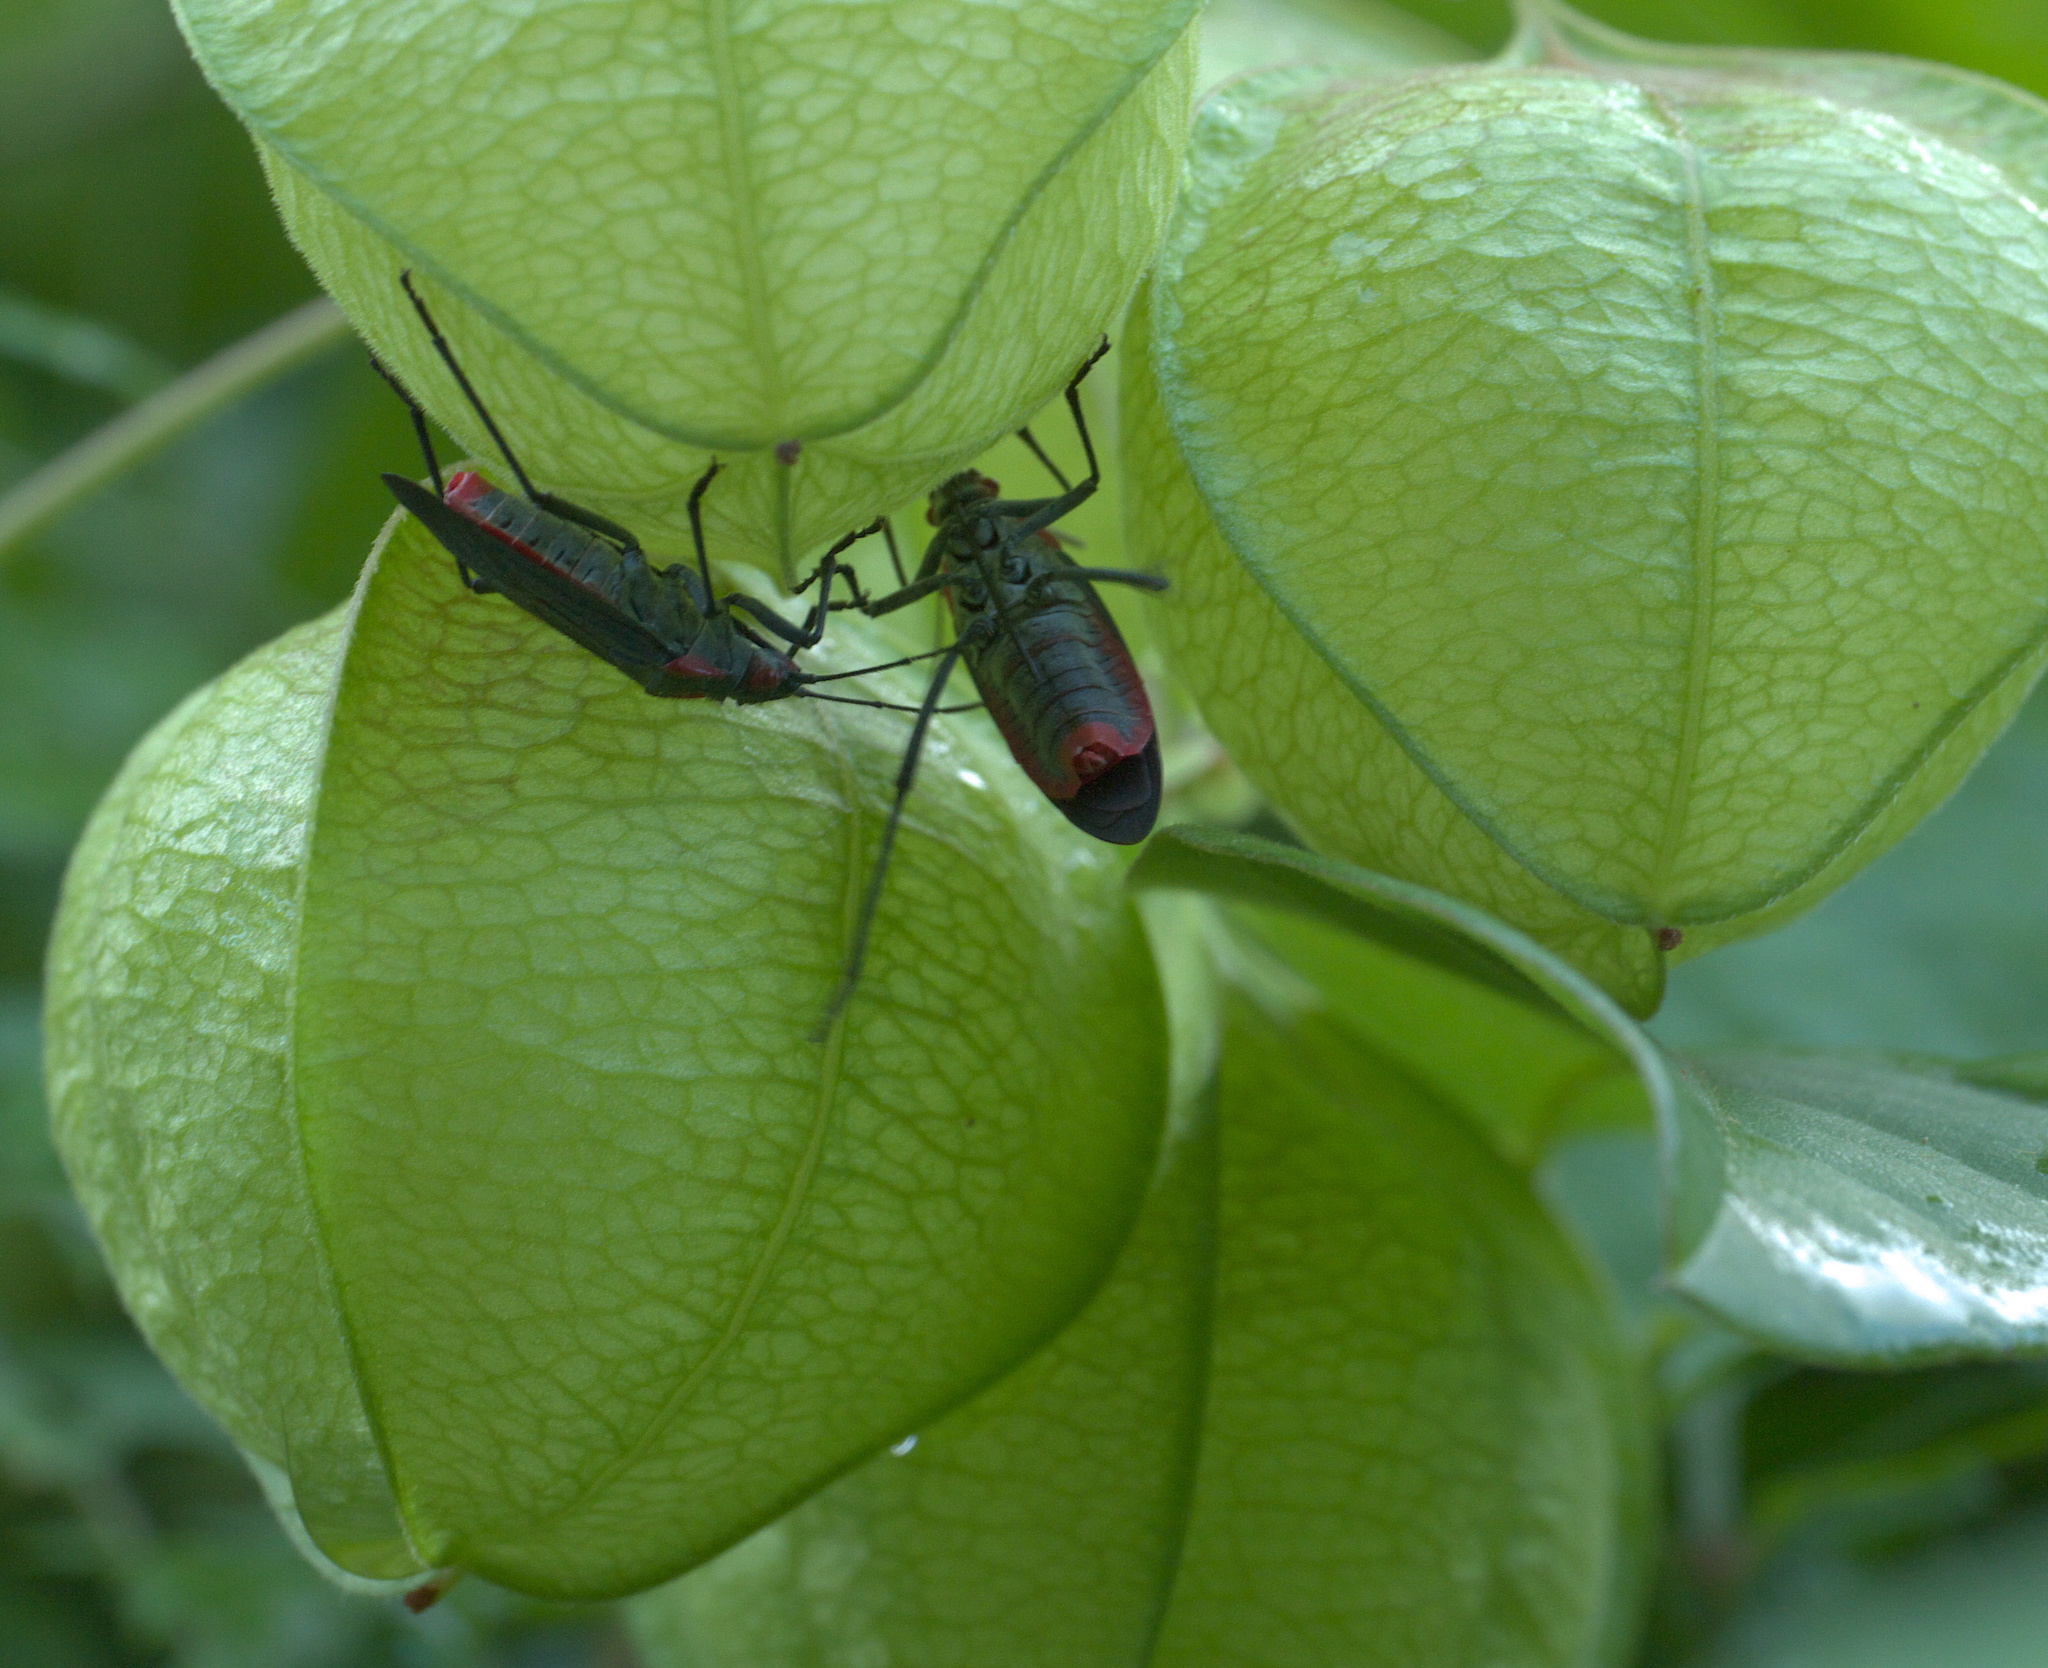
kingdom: Animalia
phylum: Arthropoda
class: Insecta
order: Hemiptera
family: Rhopalidae
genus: Jadera
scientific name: Jadera haematoloma
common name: Red-shouldered bug
